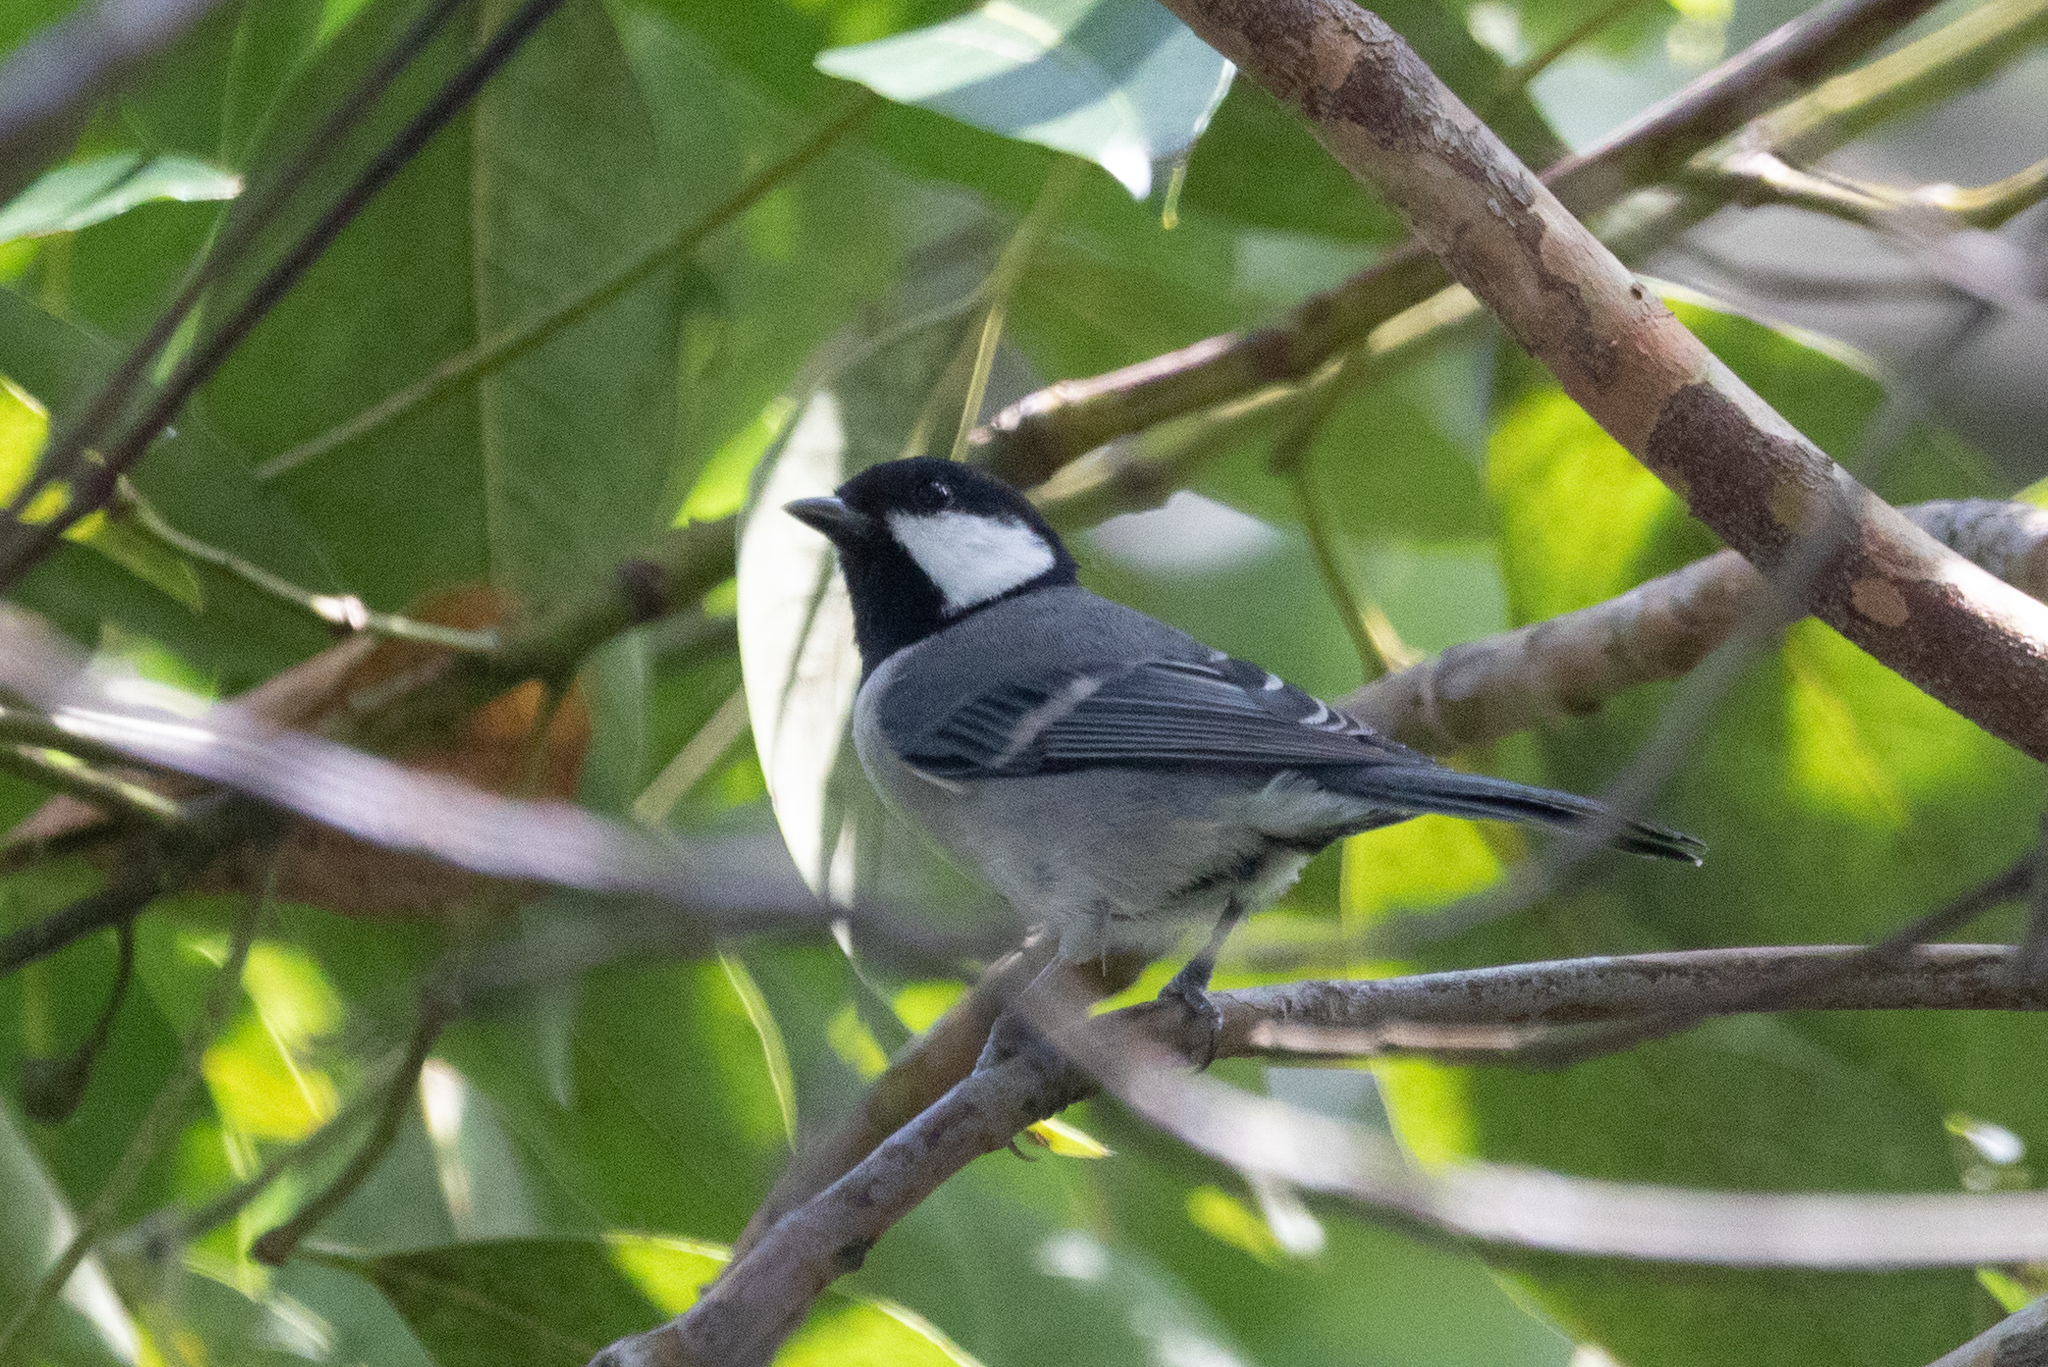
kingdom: Animalia
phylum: Chordata
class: Aves
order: Passeriformes
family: Paridae
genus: Parus
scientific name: Parus minor
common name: Japanese tit
